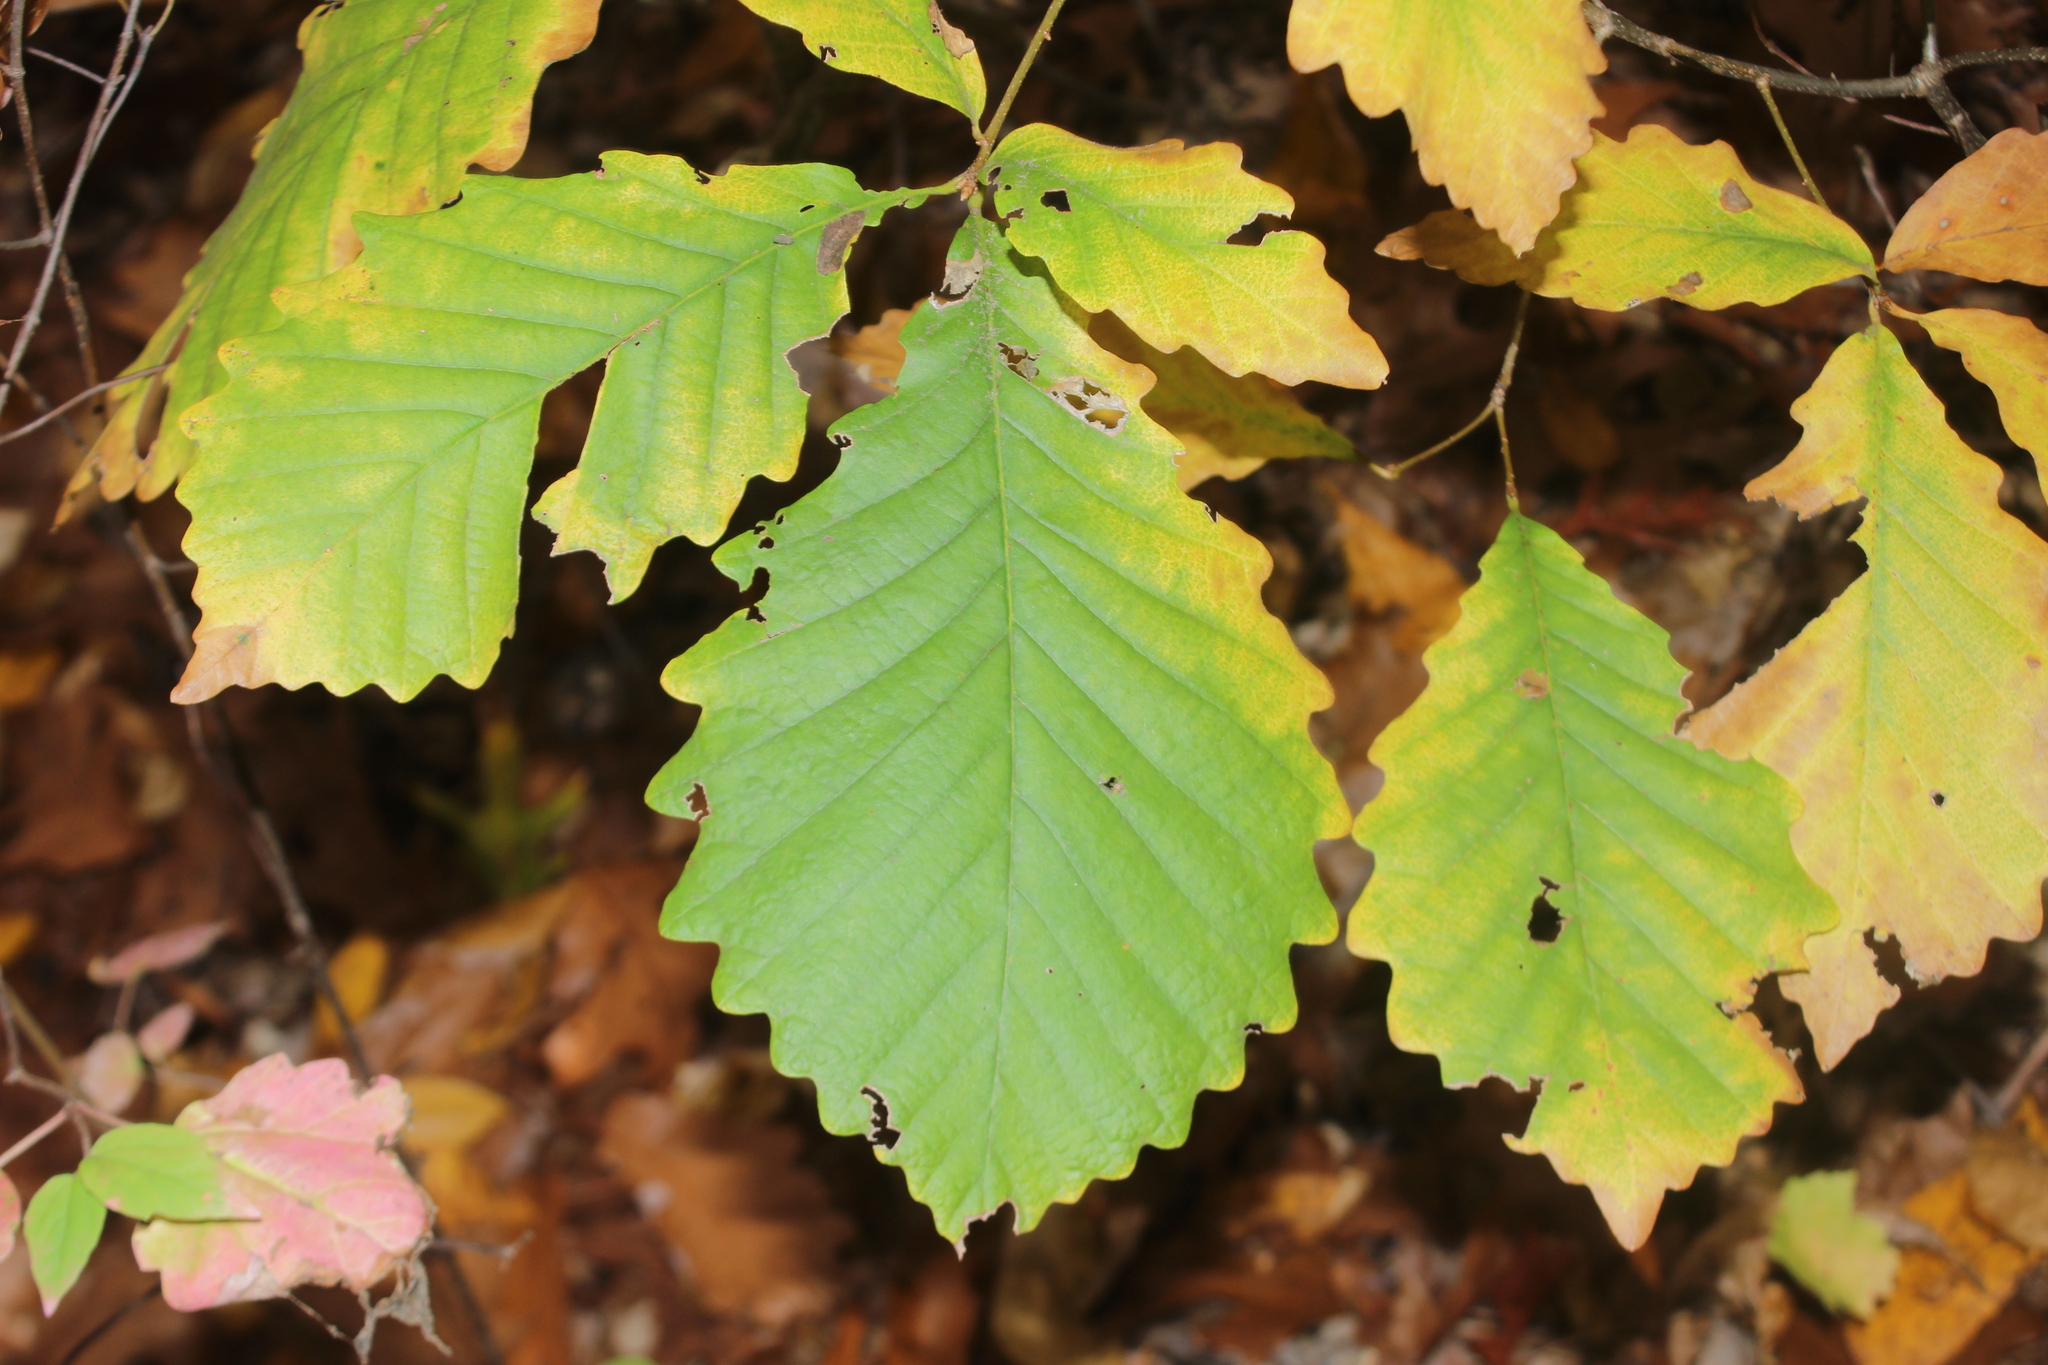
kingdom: Plantae
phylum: Tracheophyta
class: Magnoliopsida
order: Fagales
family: Fagaceae
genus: Quercus
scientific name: Quercus montana
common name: Chestnut oak
